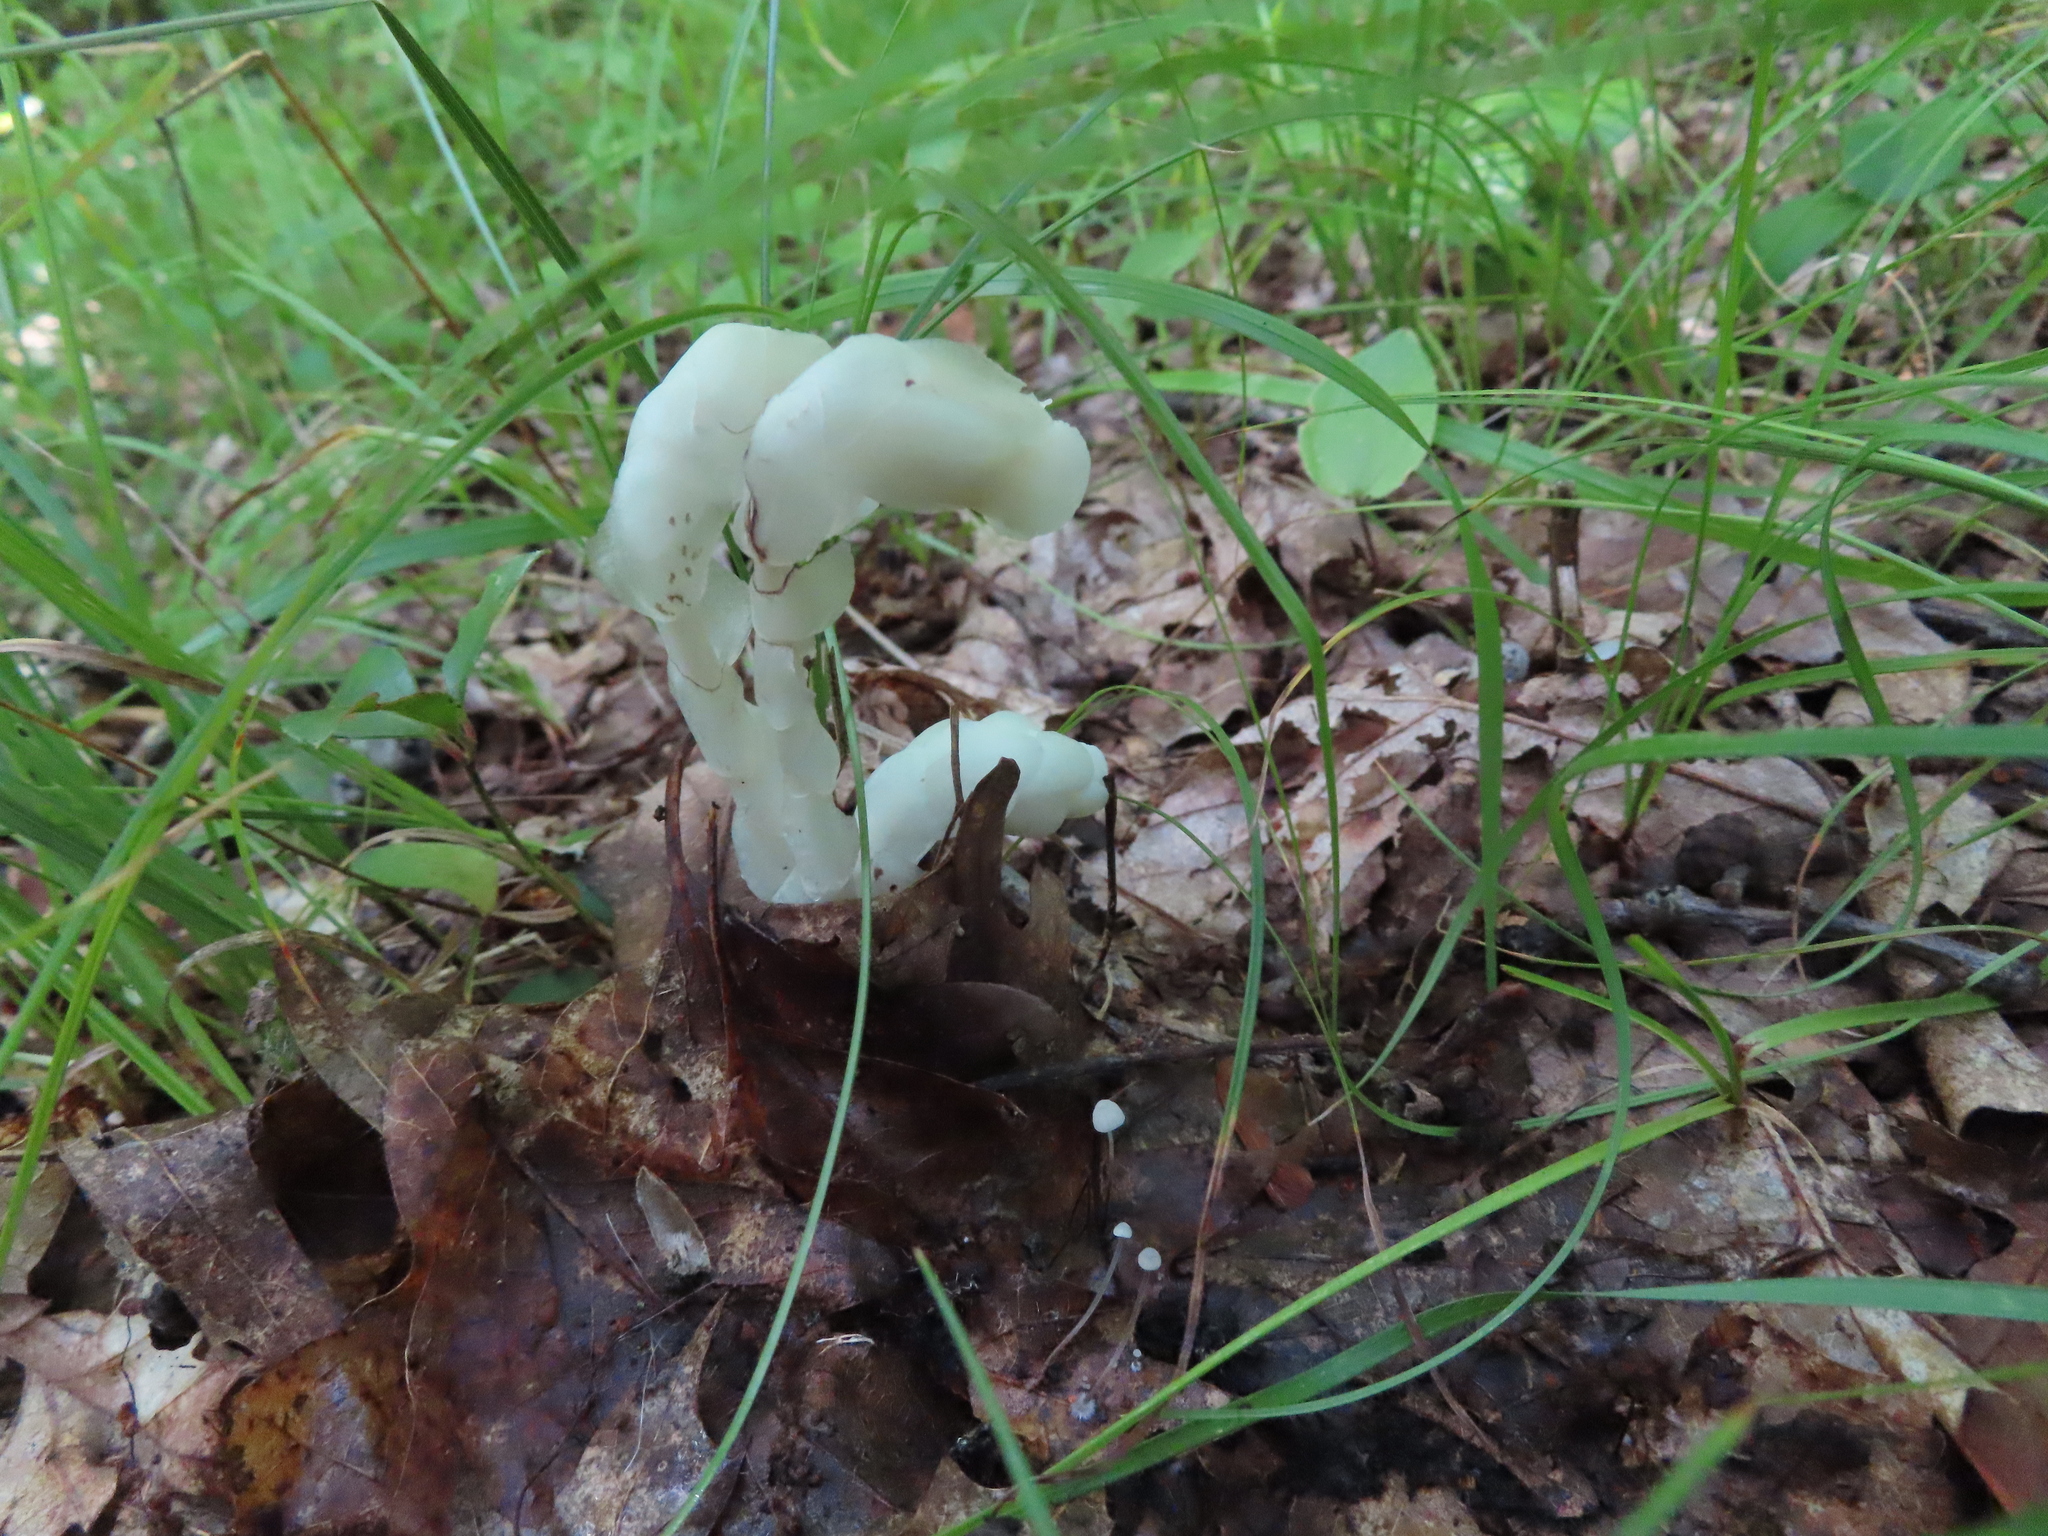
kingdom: Plantae
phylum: Tracheophyta
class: Magnoliopsida
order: Ericales
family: Ericaceae
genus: Monotropa
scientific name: Monotropa uniflora
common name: Convulsion root
